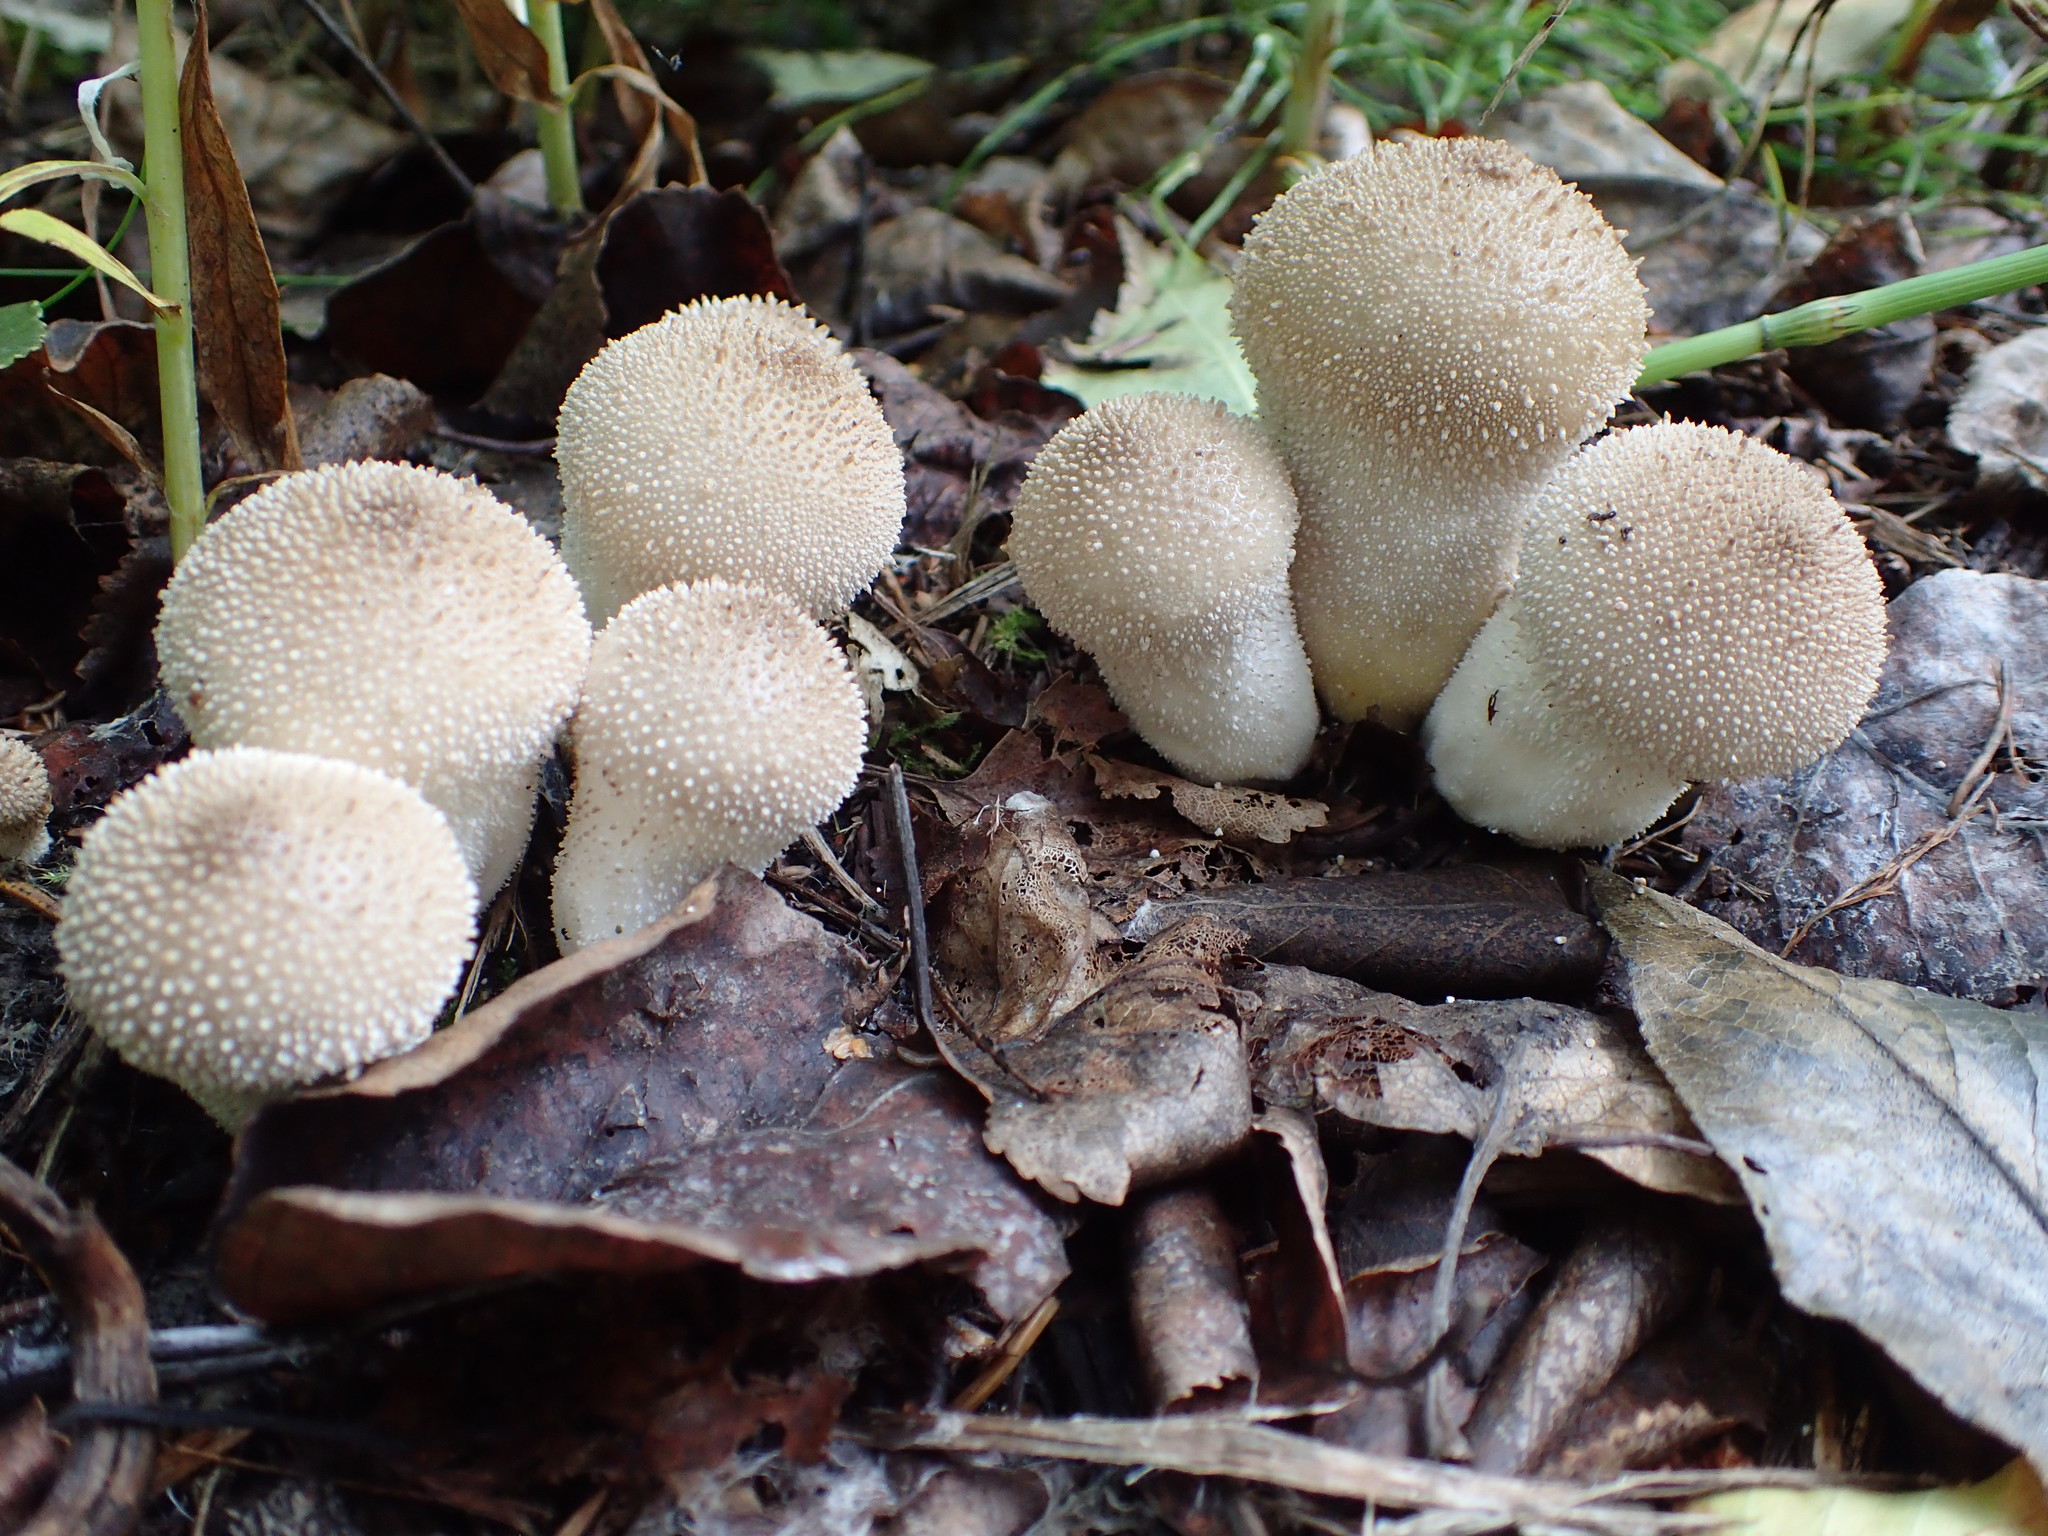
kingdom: Fungi
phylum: Basidiomycota
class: Agaricomycetes
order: Agaricales
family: Lycoperdaceae
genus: Lycoperdon
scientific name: Lycoperdon perlatum
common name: Common puffball
